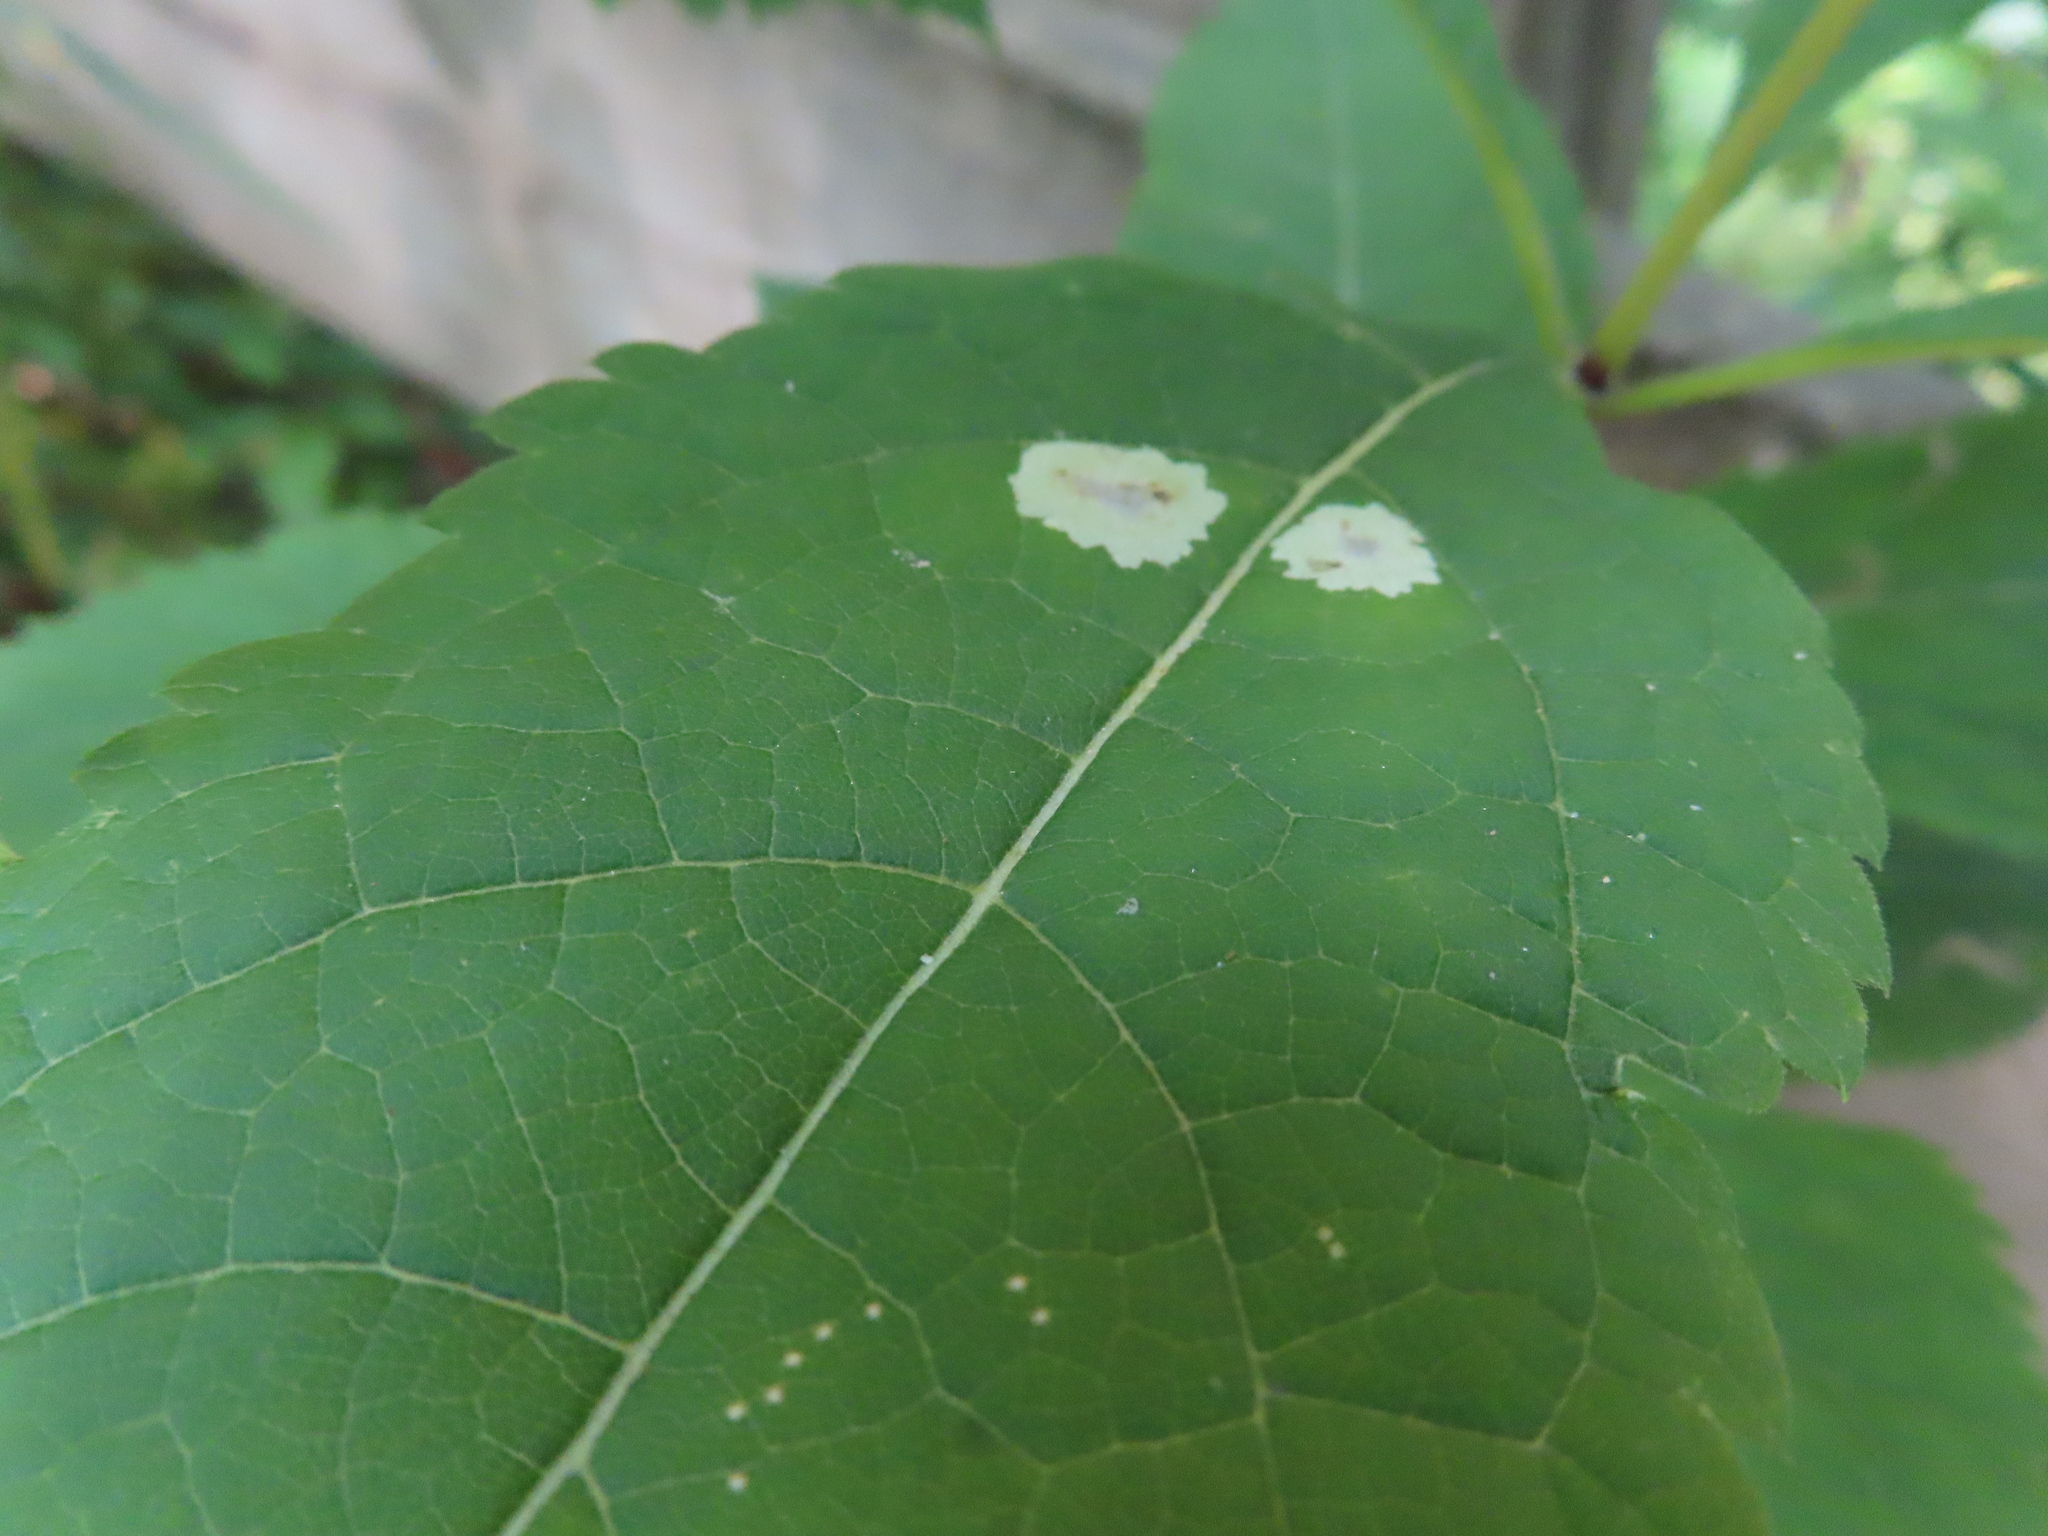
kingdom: Animalia
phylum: Arthropoda
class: Insecta
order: Diptera
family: Agromyzidae
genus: Calycomyza
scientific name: Calycomyza flavinotum
